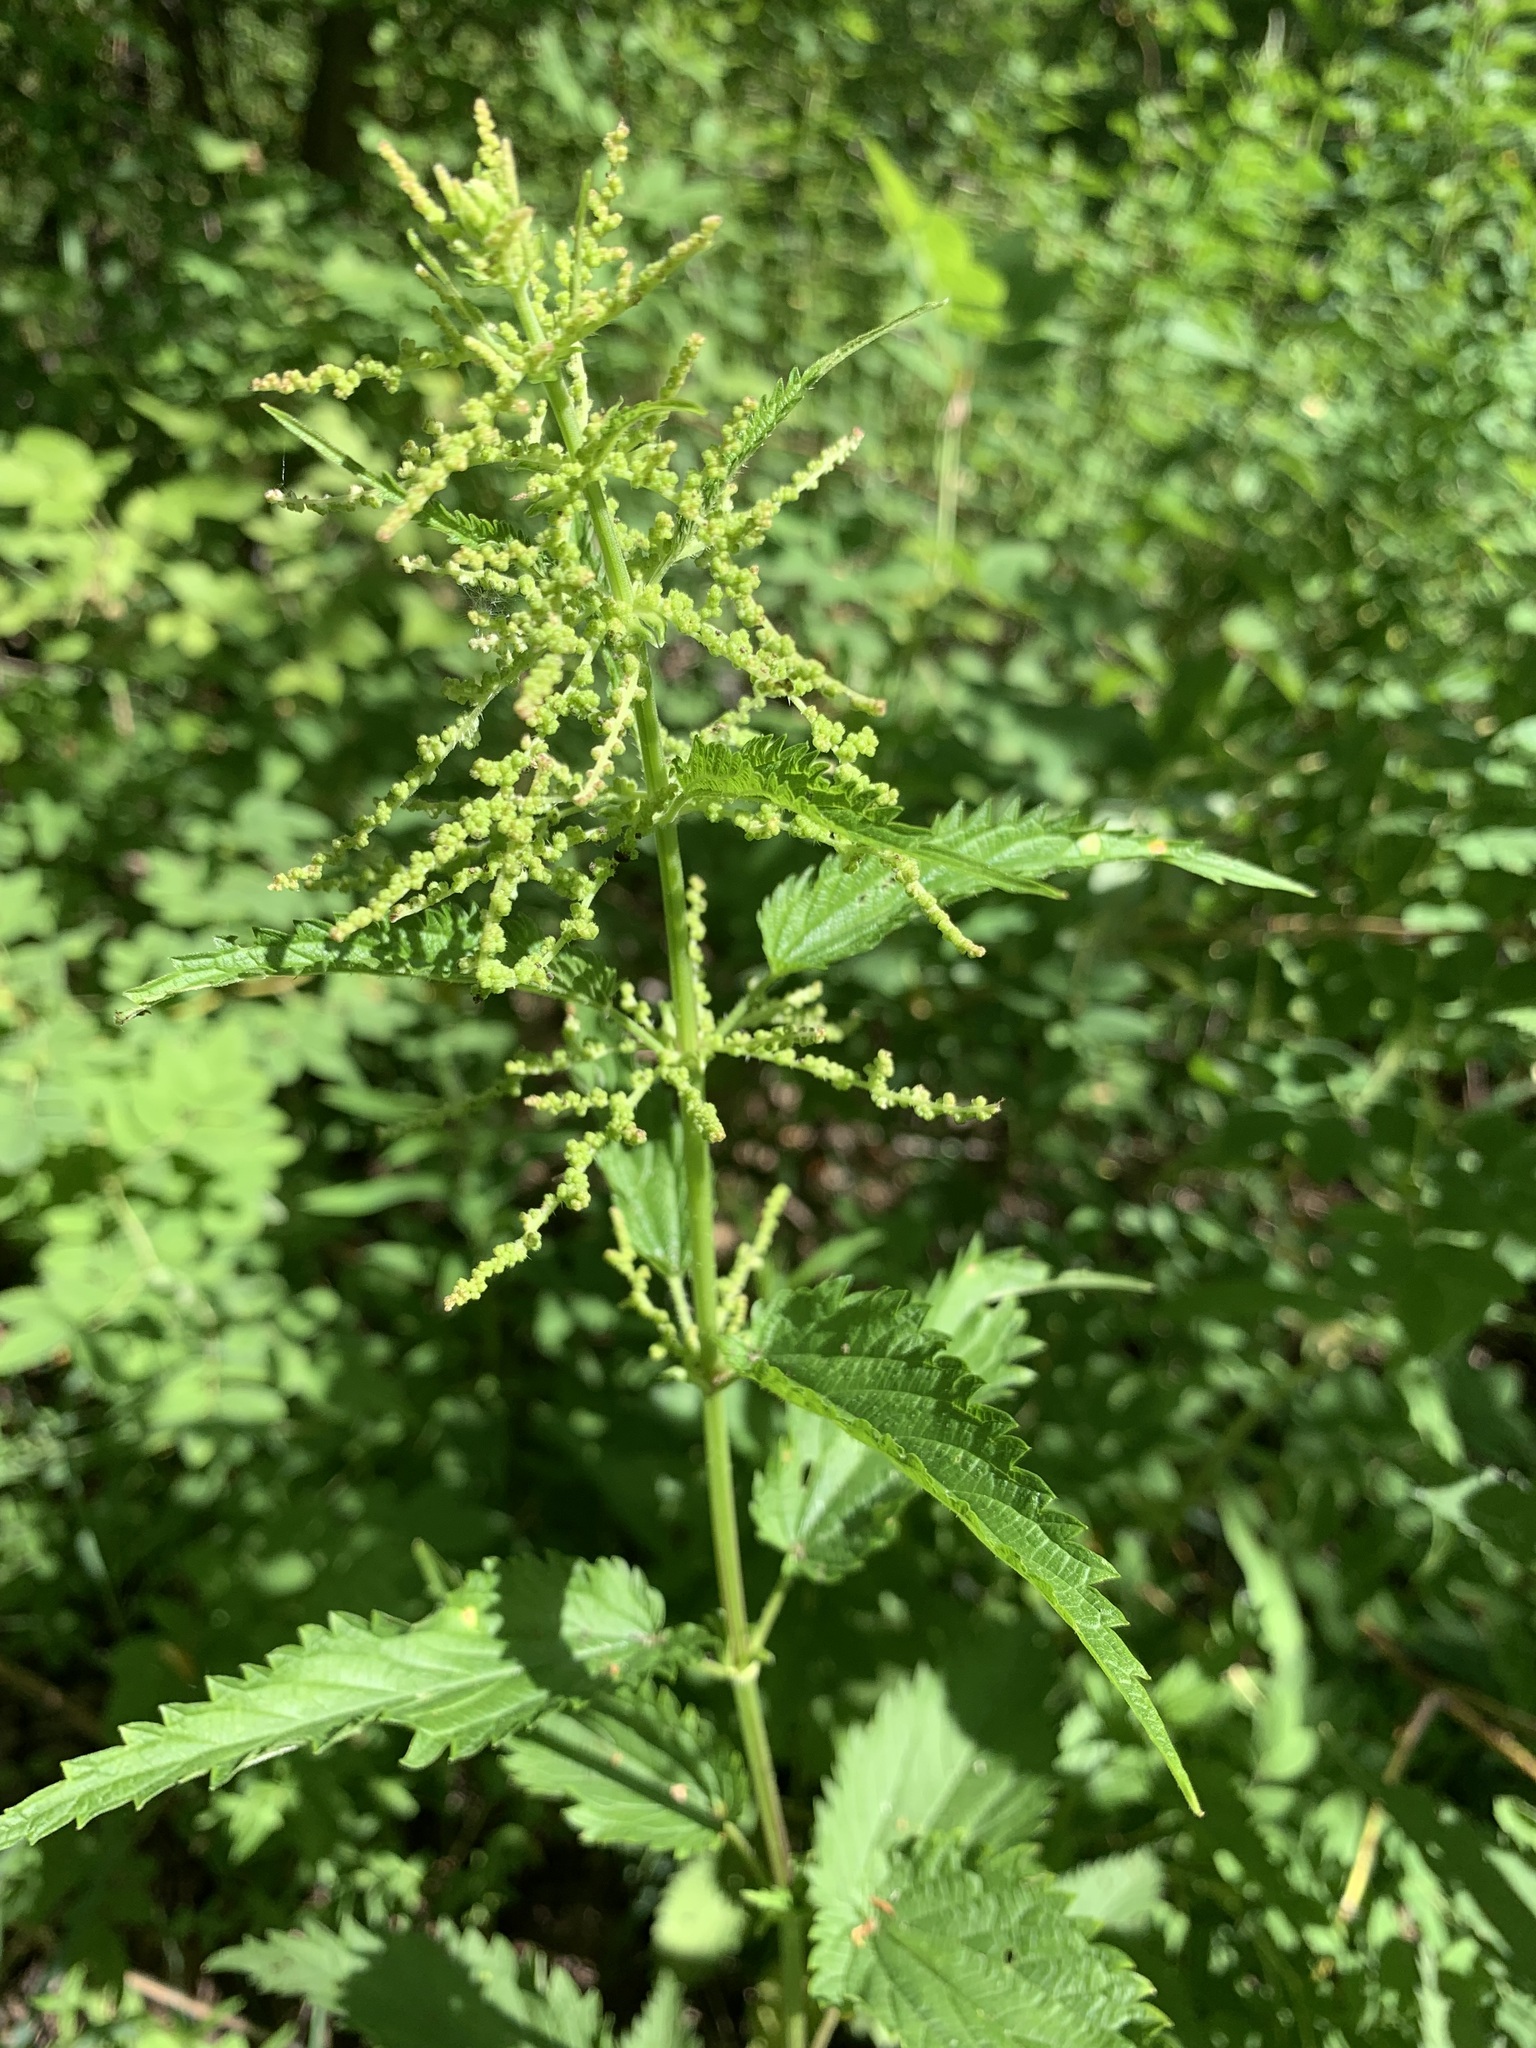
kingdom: Plantae
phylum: Tracheophyta
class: Magnoliopsida
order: Rosales
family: Urticaceae
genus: Urtica
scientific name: Urtica dioica
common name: Common nettle
